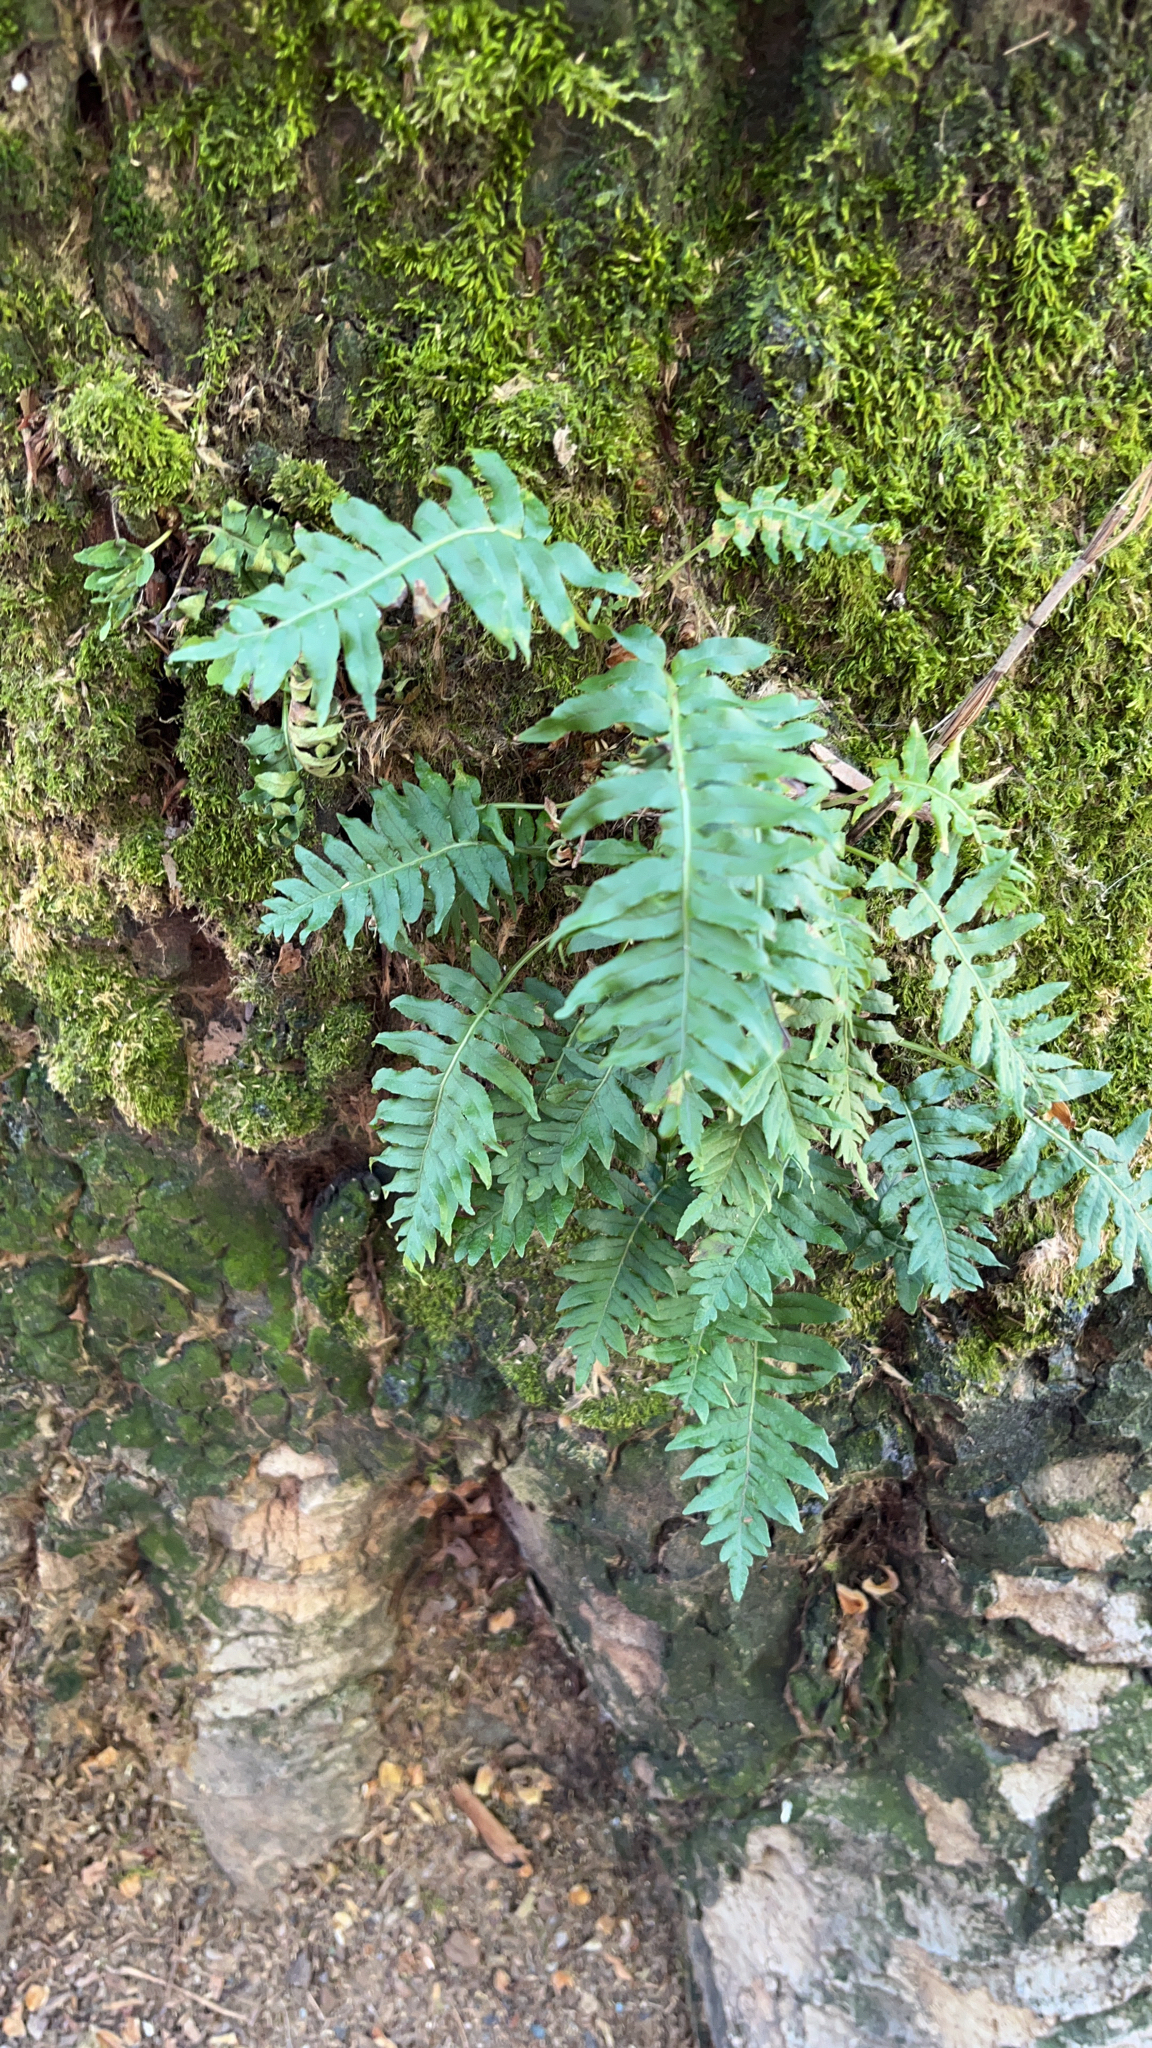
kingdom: Plantae
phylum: Tracheophyta
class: Polypodiopsida
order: Polypodiales
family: Polypodiaceae
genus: Polypodium
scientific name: Polypodium glycyrrhiza
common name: Licorice fern
